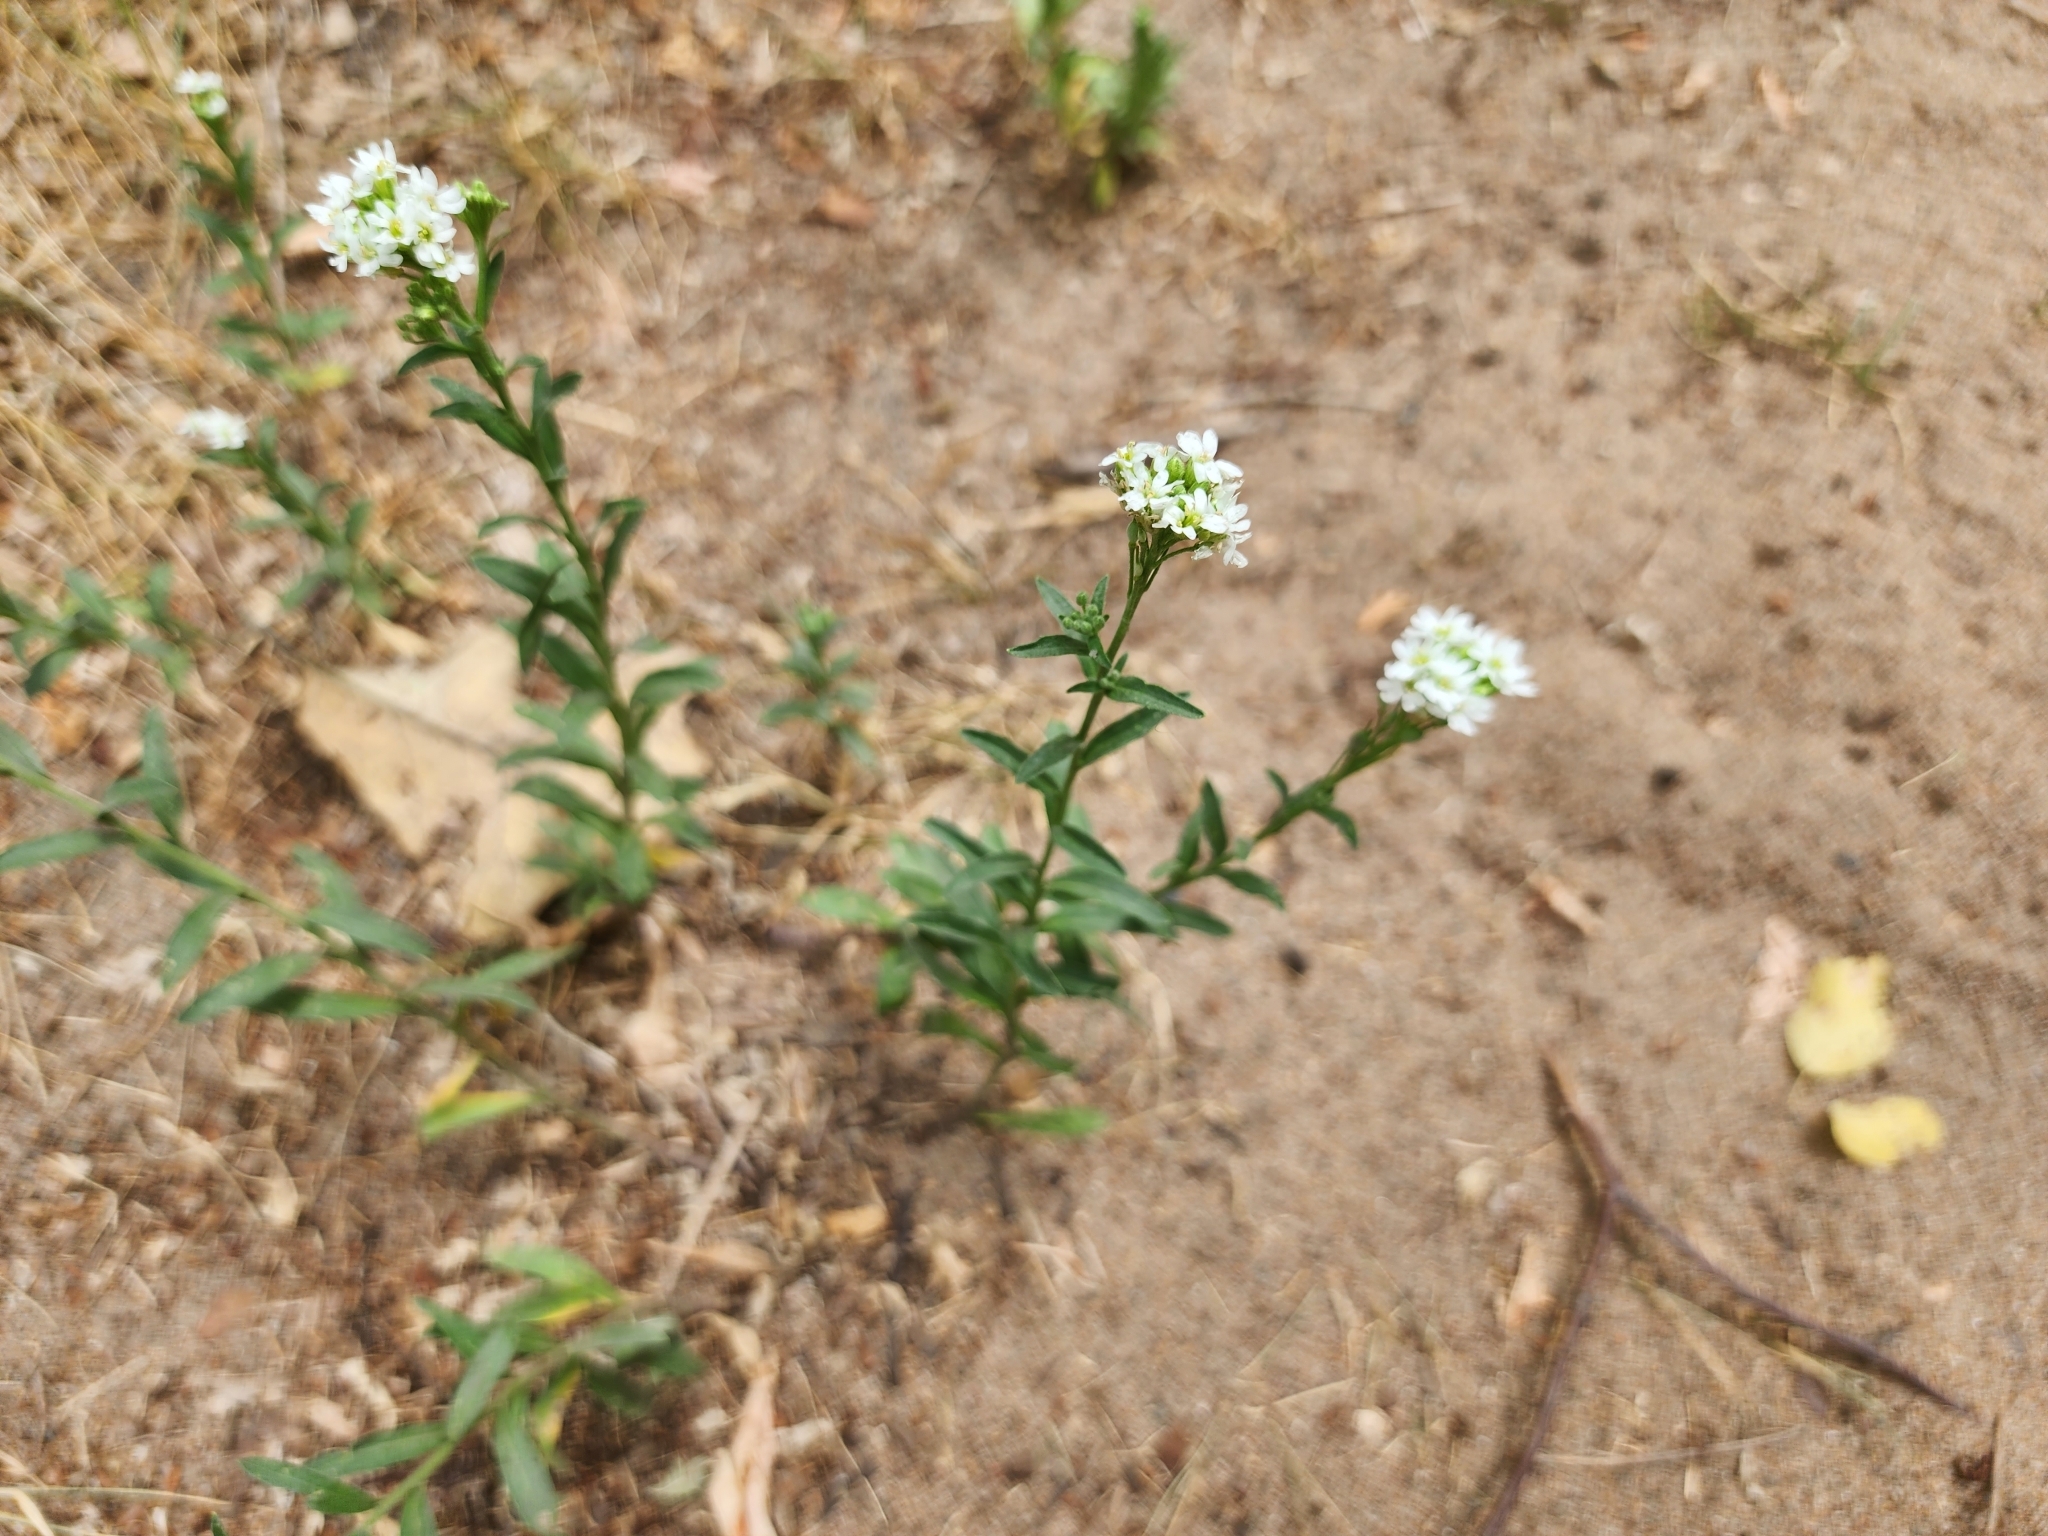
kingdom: Plantae
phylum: Tracheophyta
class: Magnoliopsida
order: Brassicales
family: Brassicaceae
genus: Berteroa
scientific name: Berteroa incana
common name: Hoary alison
